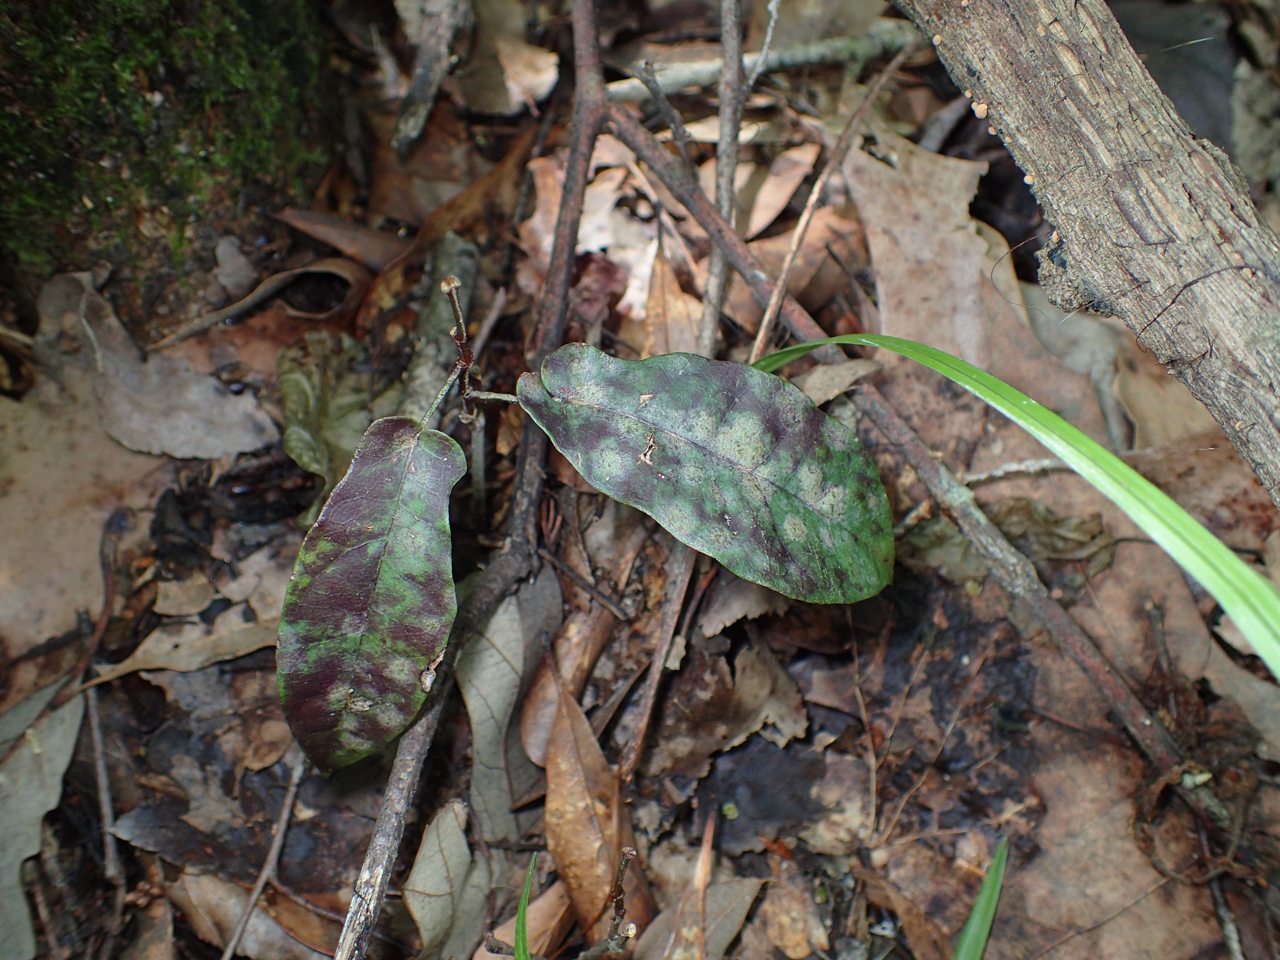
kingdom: Plantae
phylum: Tracheophyta
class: Magnoliopsida
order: Lamiales
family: Bignoniaceae
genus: Bignonia
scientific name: Bignonia capreolata
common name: Crossvine
